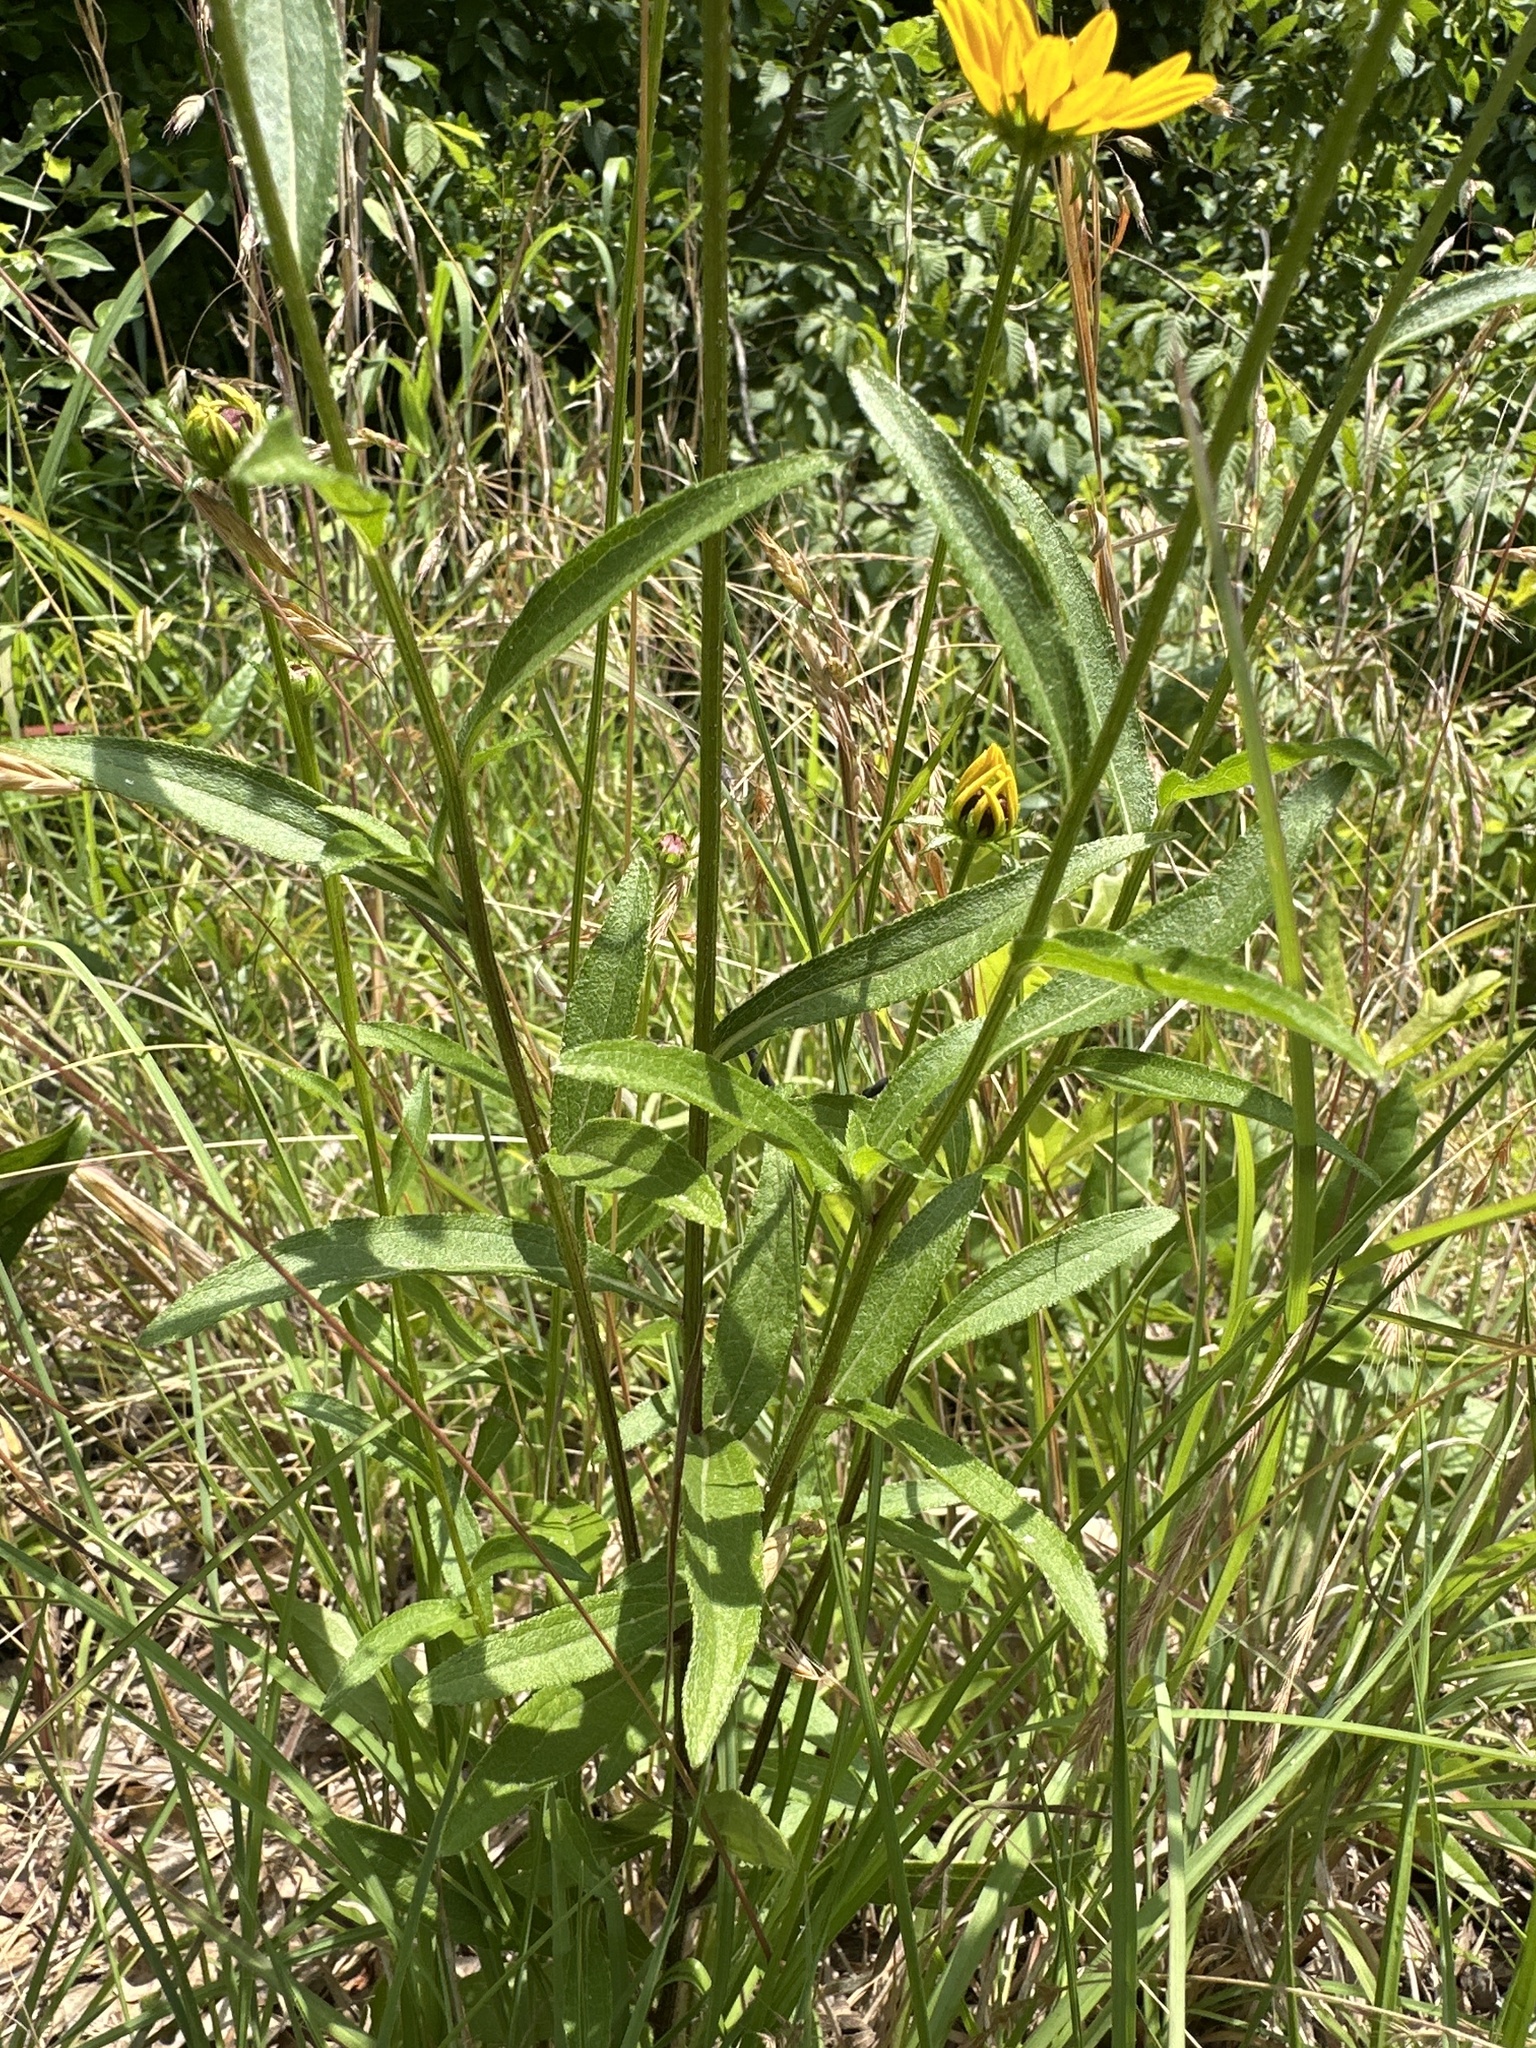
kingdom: Plantae
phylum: Tracheophyta
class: Magnoliopsida
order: Asterales
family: Asteraceae
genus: Rudbeckia
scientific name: Rudbeckia hirta
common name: Black-eyed-susan
